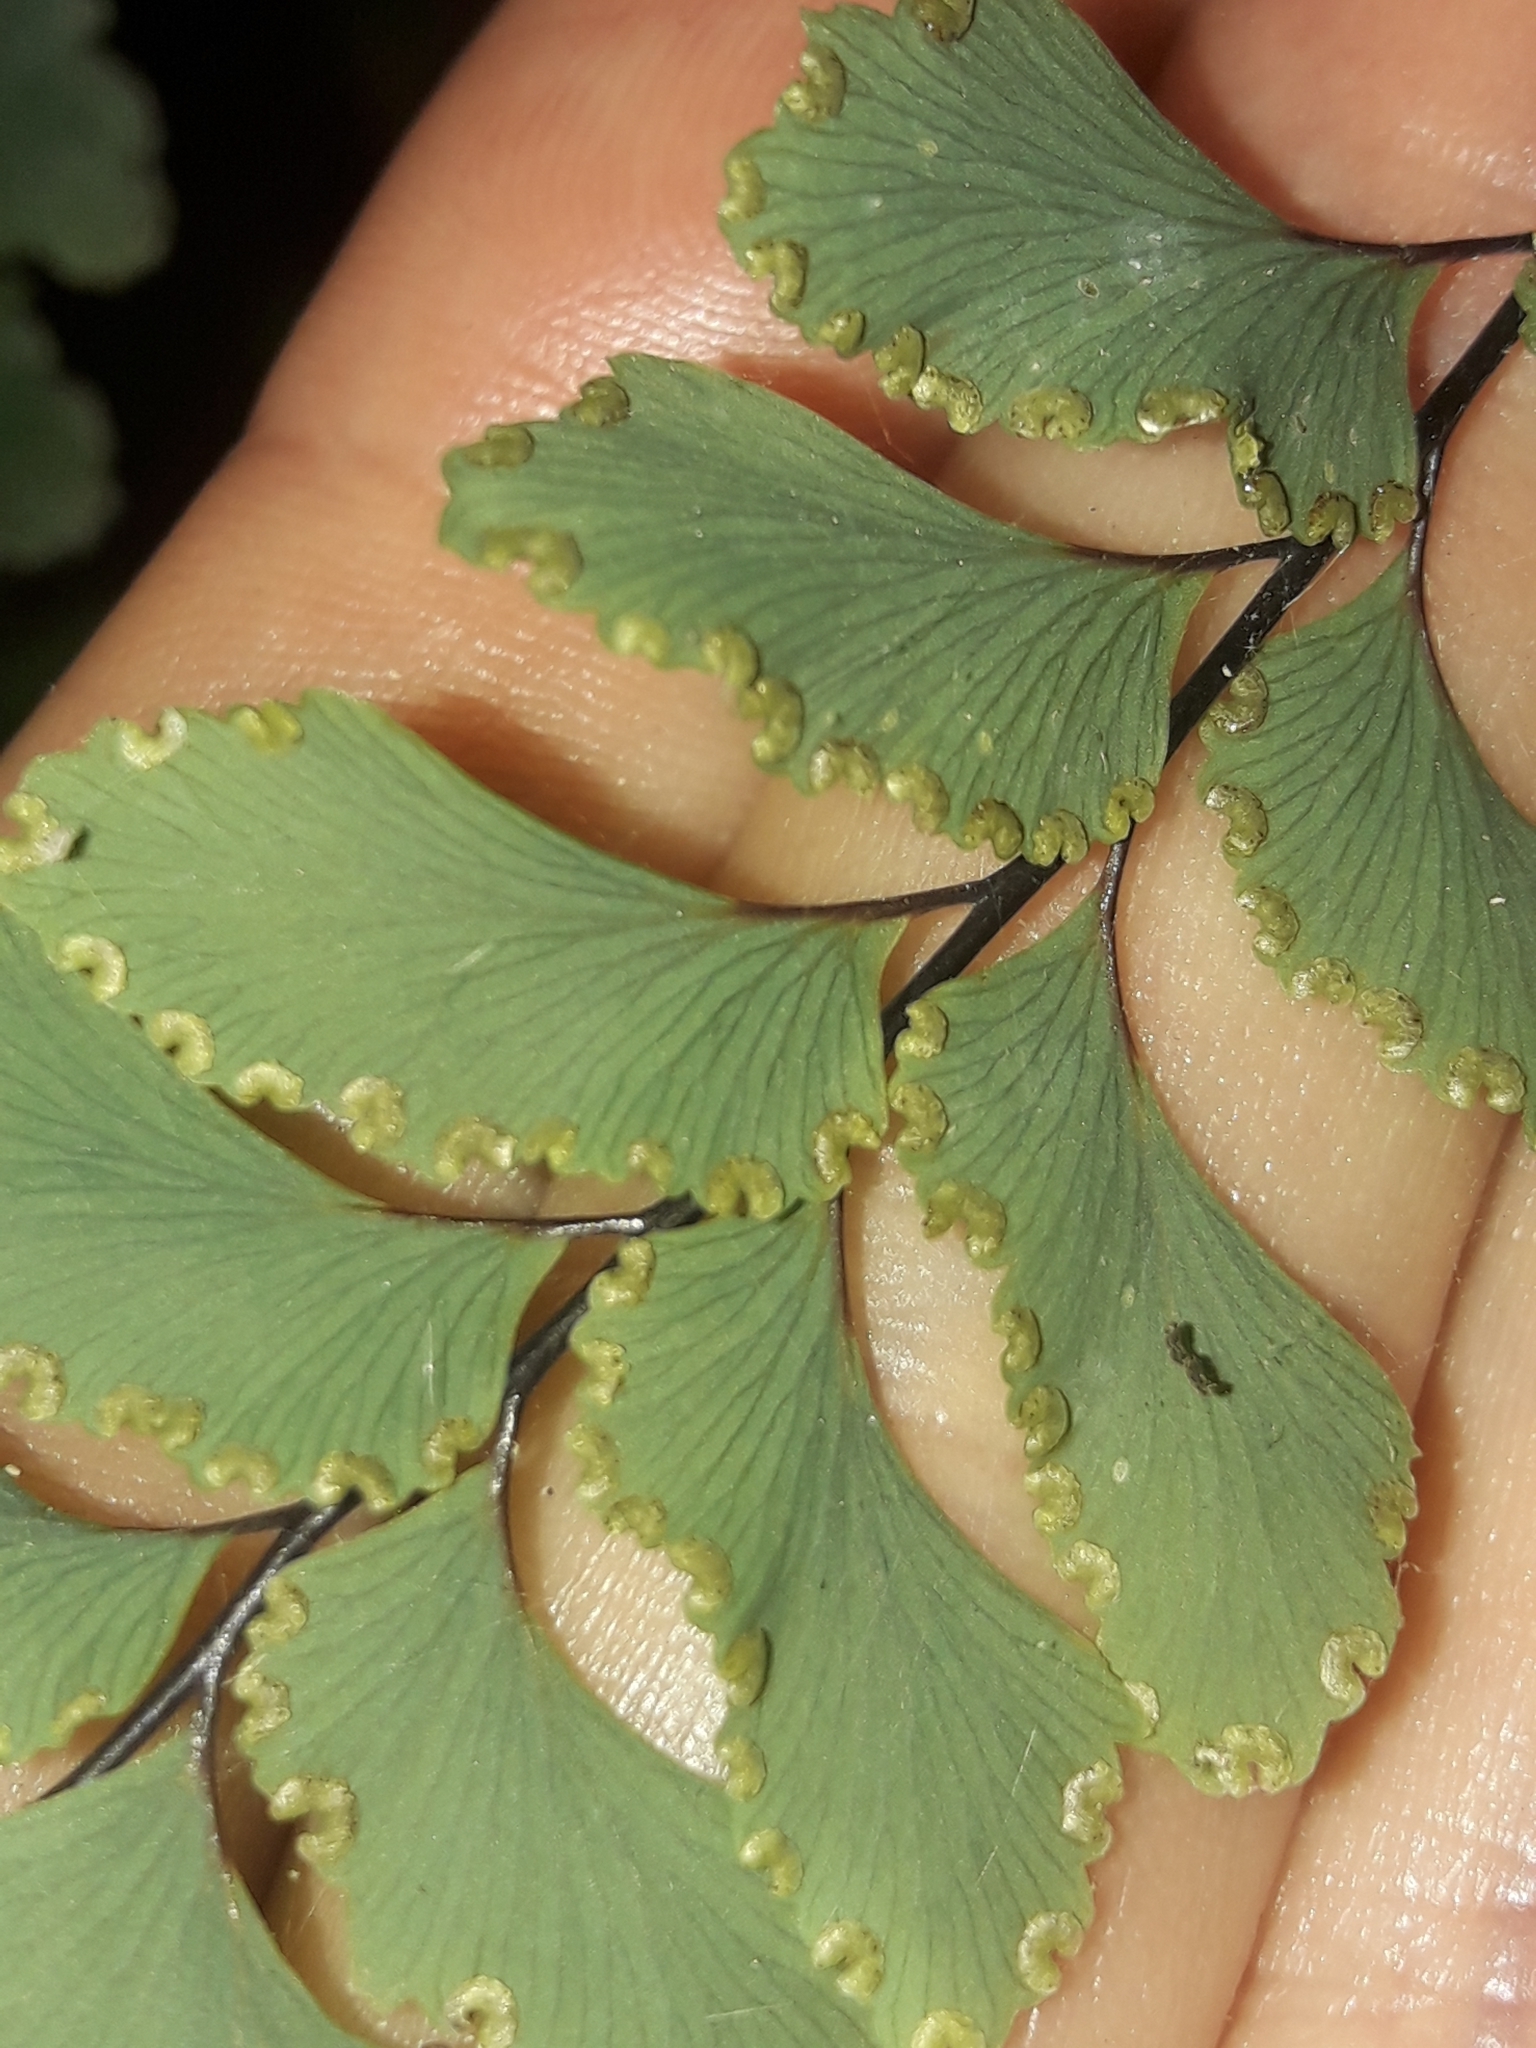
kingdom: Plantae
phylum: Tracheophyta
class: Polypodiopsida
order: Polypodiales
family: Pteridaceae
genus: Adiantum
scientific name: Adiantum cunninghamii
